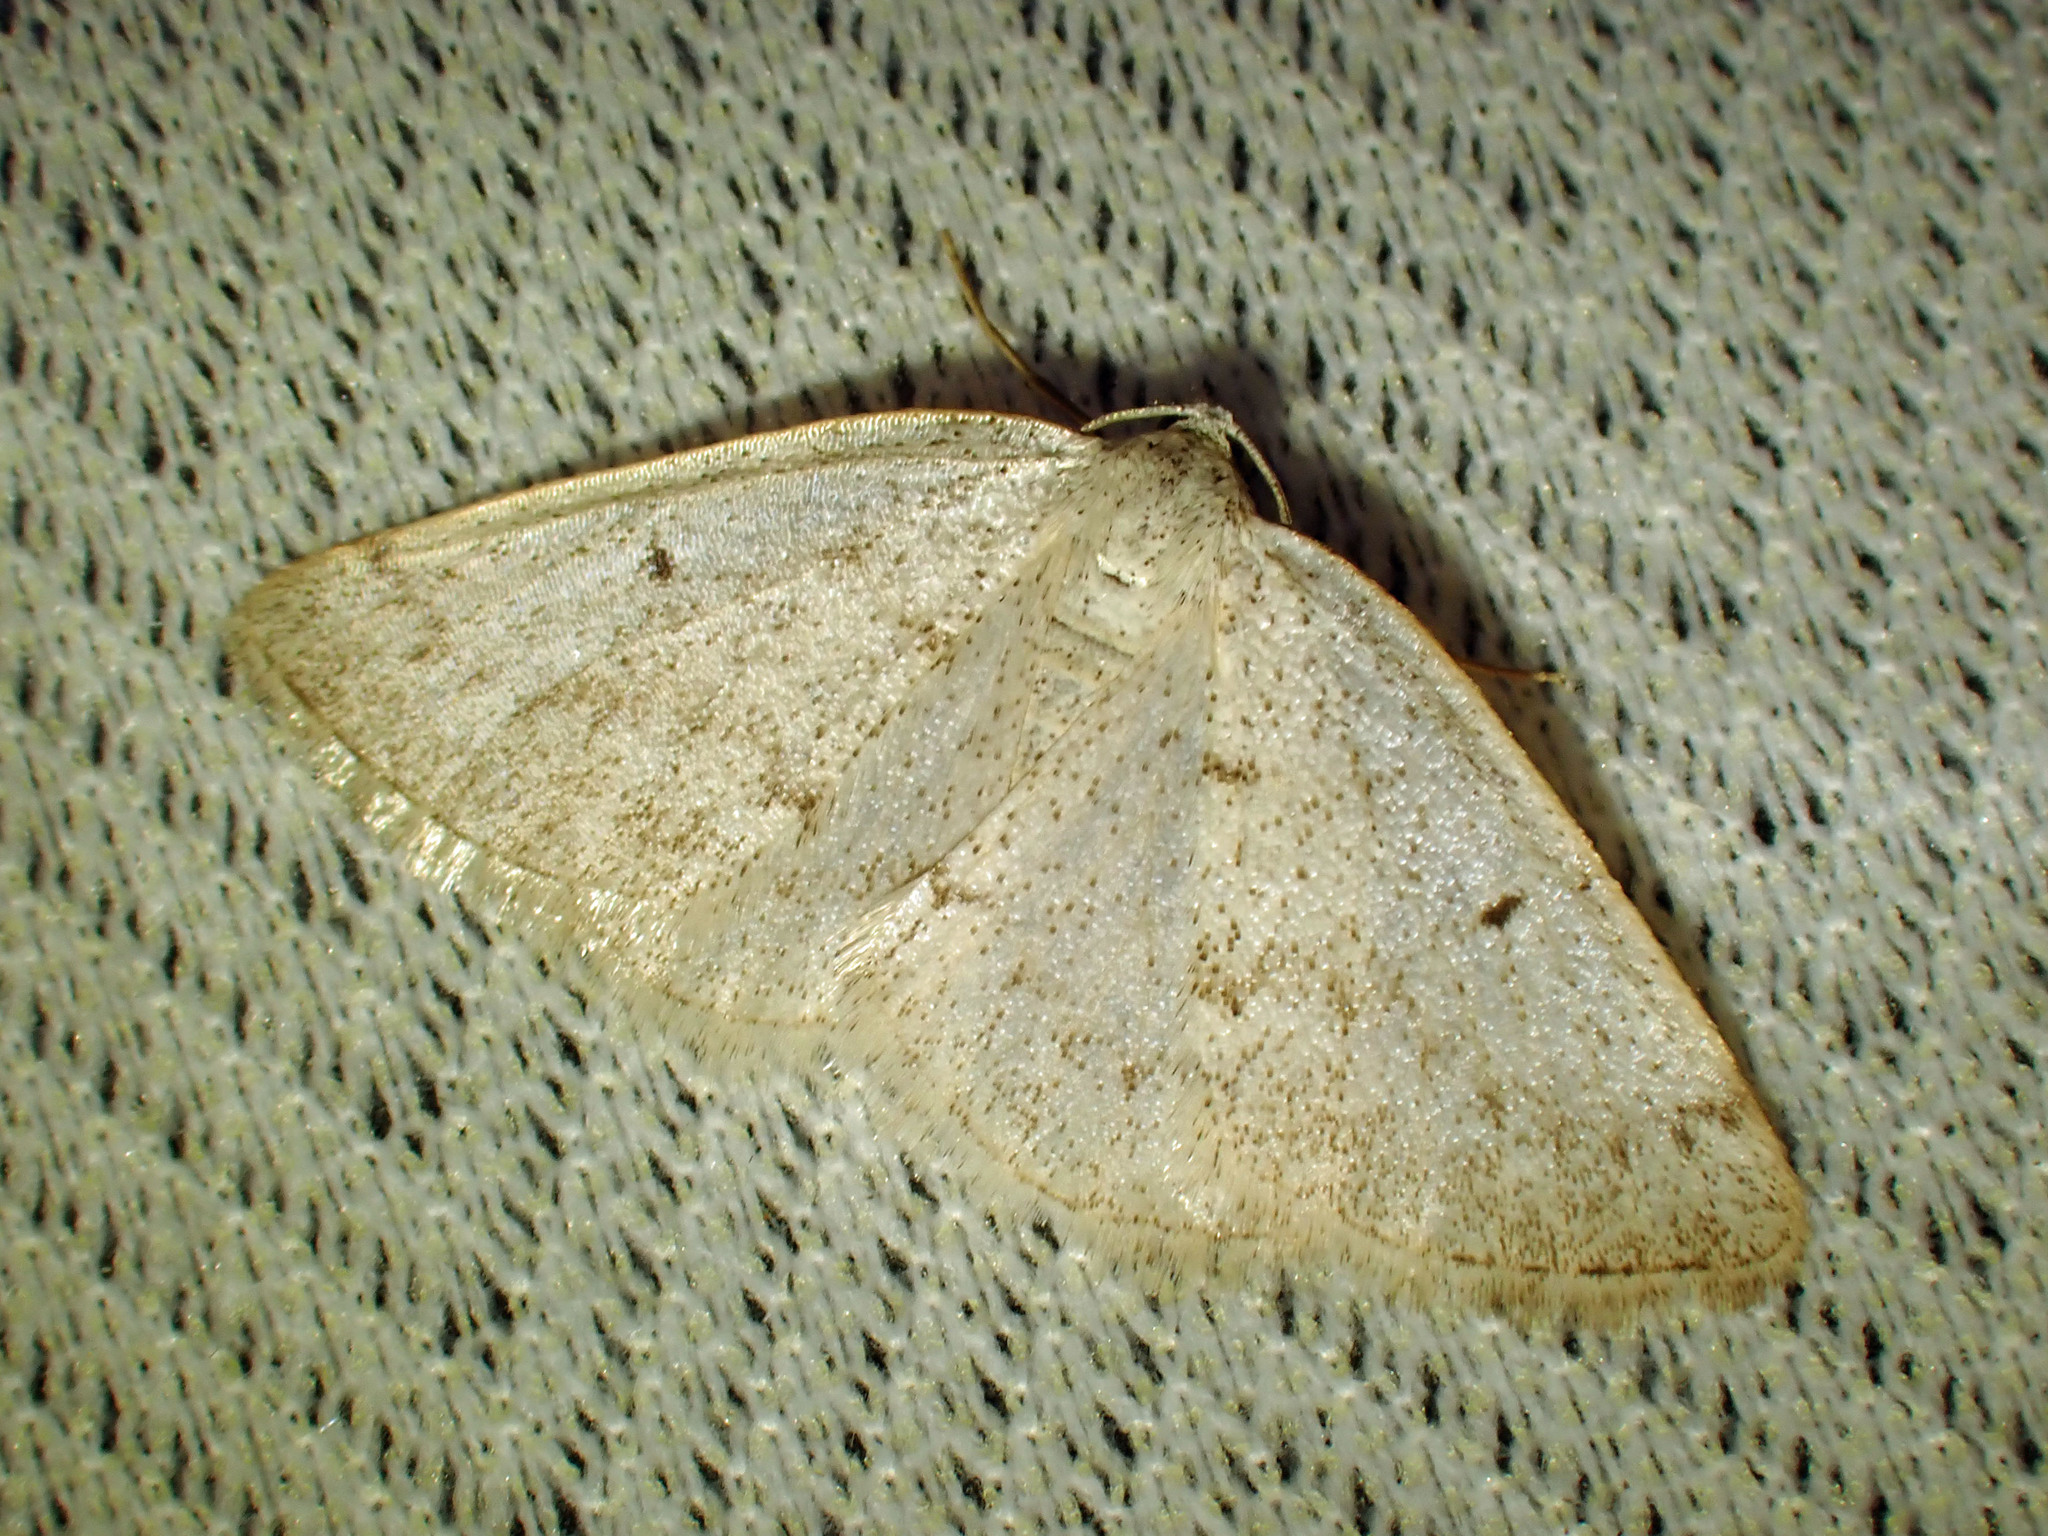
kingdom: Animalia
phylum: Arthropoda
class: Insecta
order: Lepidoptera
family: Geometridae
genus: Lomographa
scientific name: Lomographa glomeraria
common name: Gray spring moth
